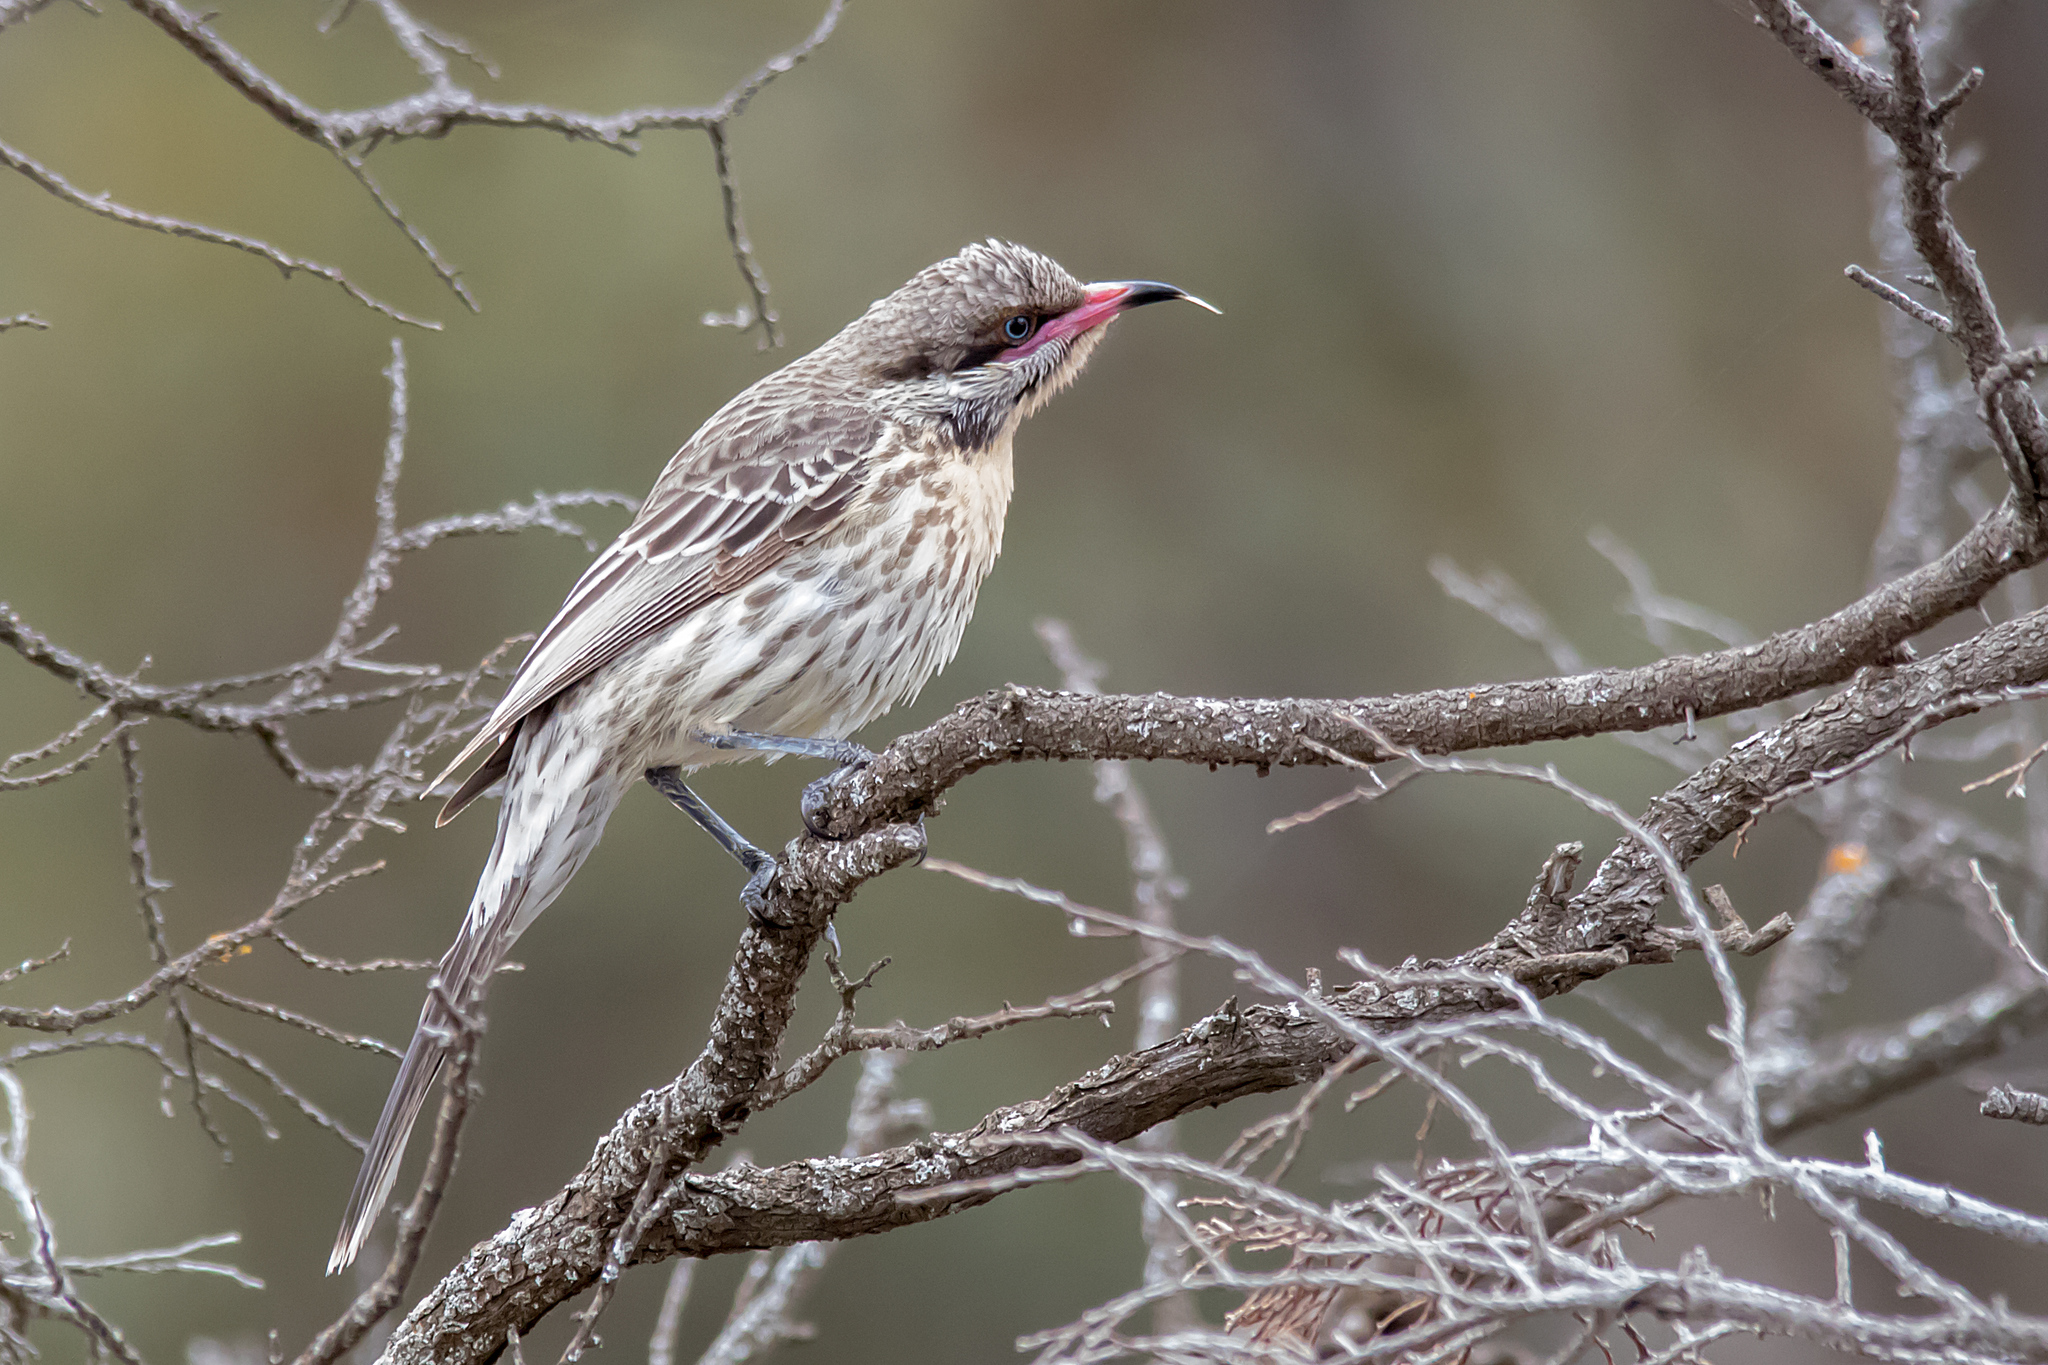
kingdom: Animalia
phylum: Chordata
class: Aves
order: Passeriformes
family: Meliphagidae
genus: Acanthagenys
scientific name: Acanthagenys rufogularis
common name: Spiny-cheeked honeyeater
